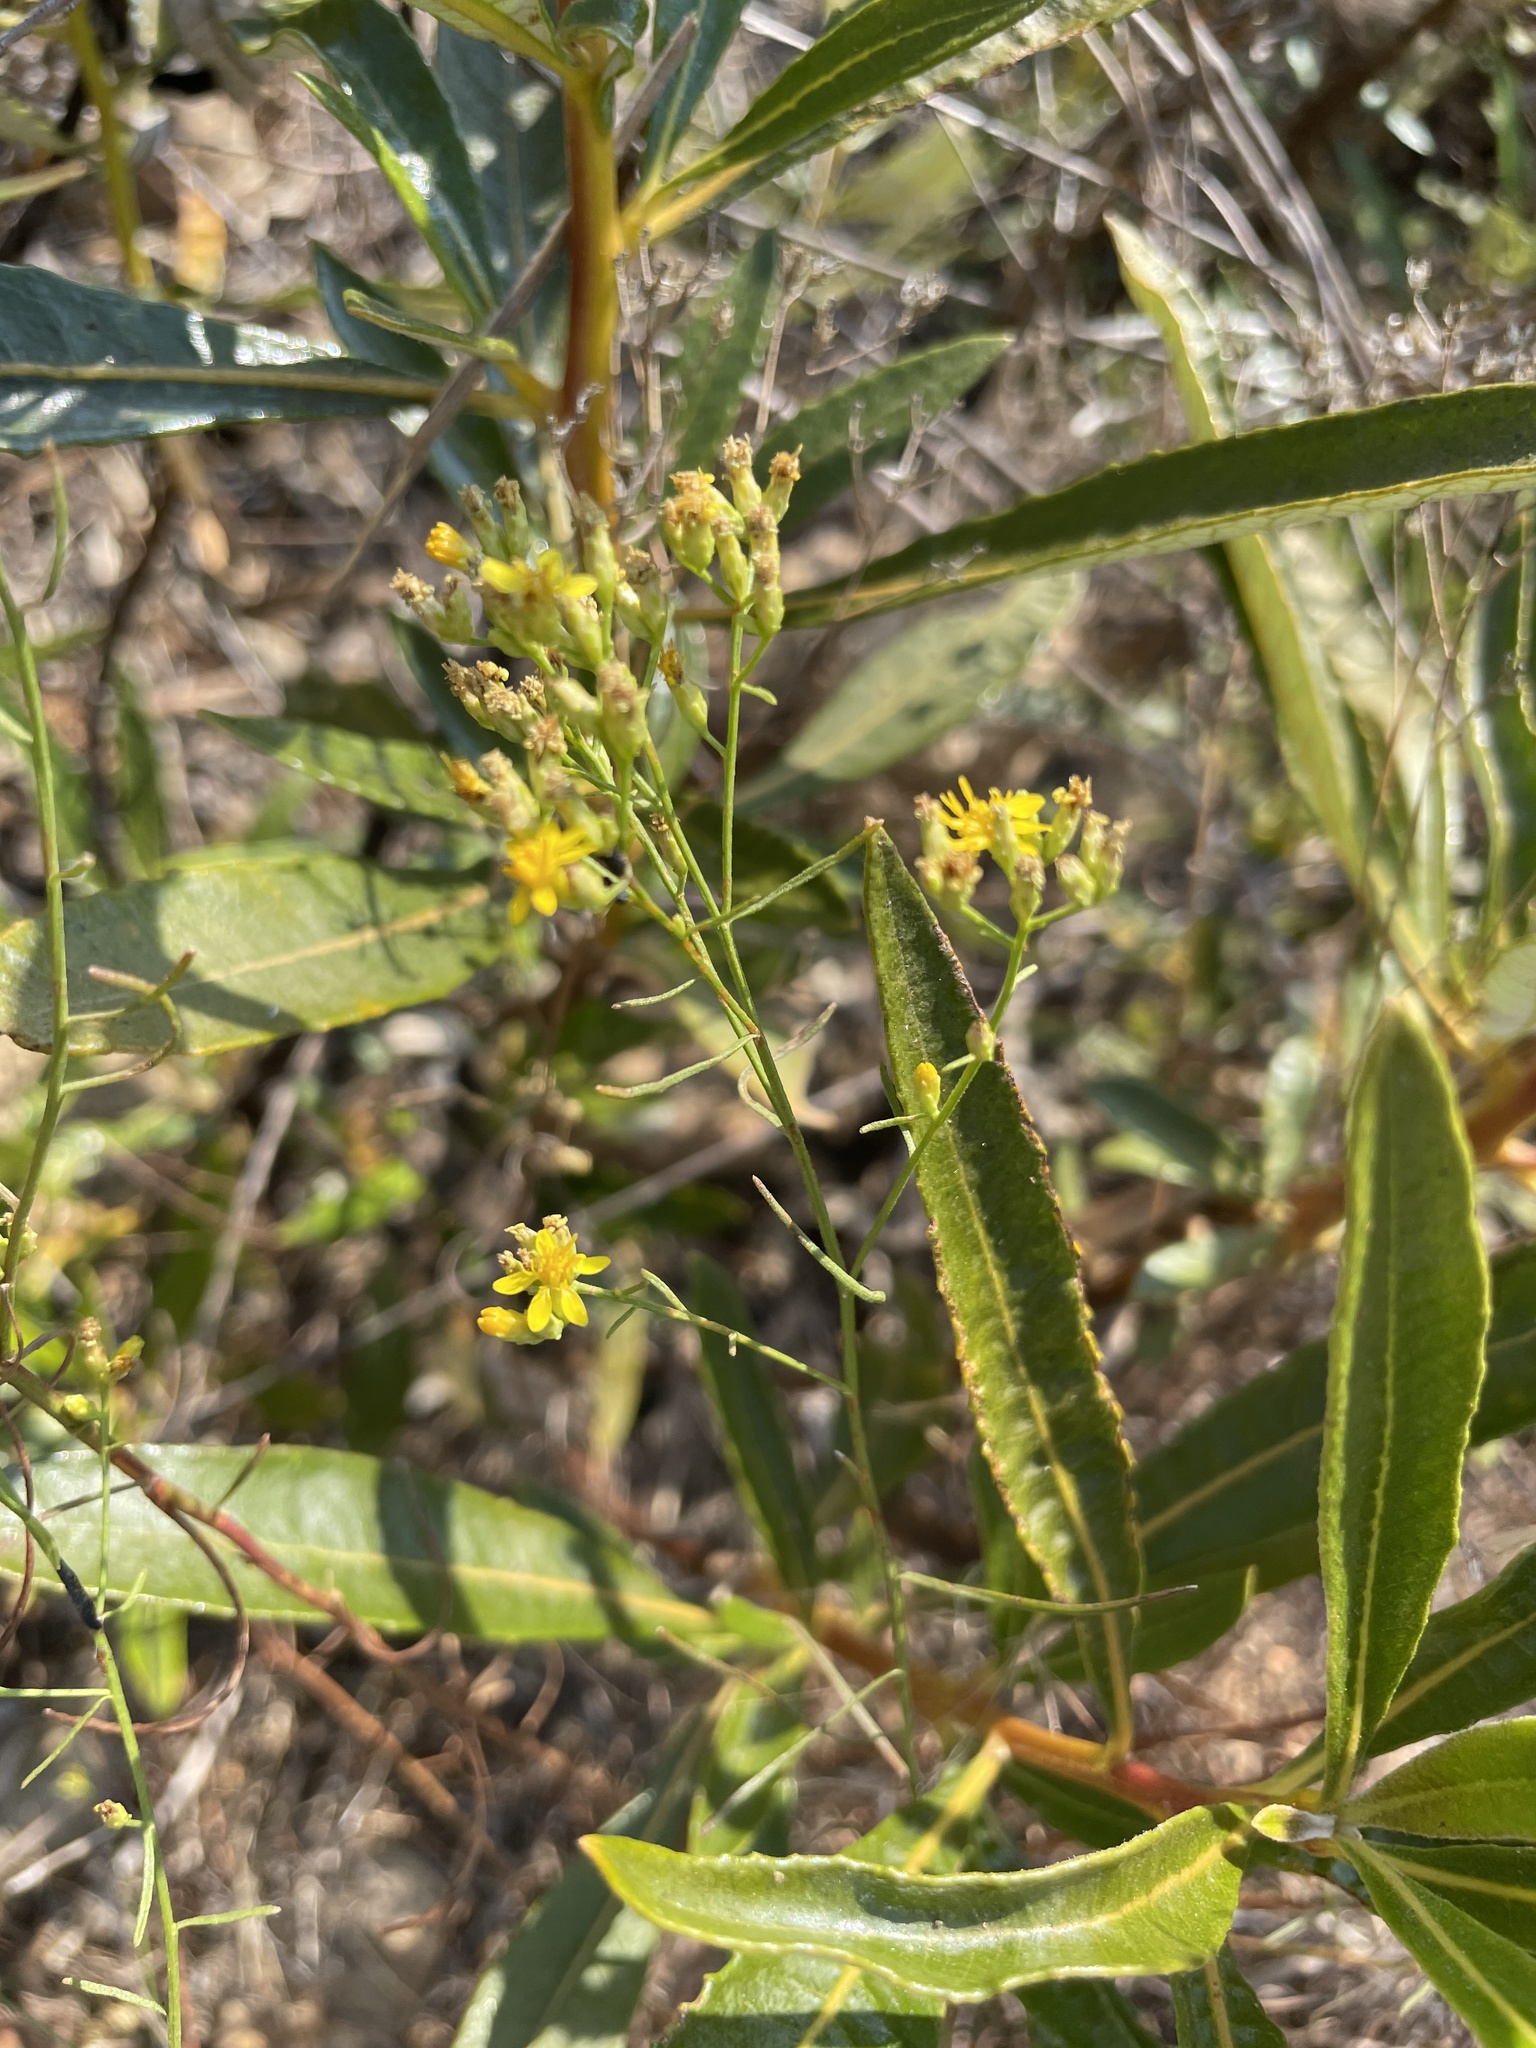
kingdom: Plantae
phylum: Tracheophyta
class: Magnoliopsida
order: Asterales
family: Asteraceae
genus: Gutierrezia
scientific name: Gutierrezia sarothrae
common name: Broom snakeweed
